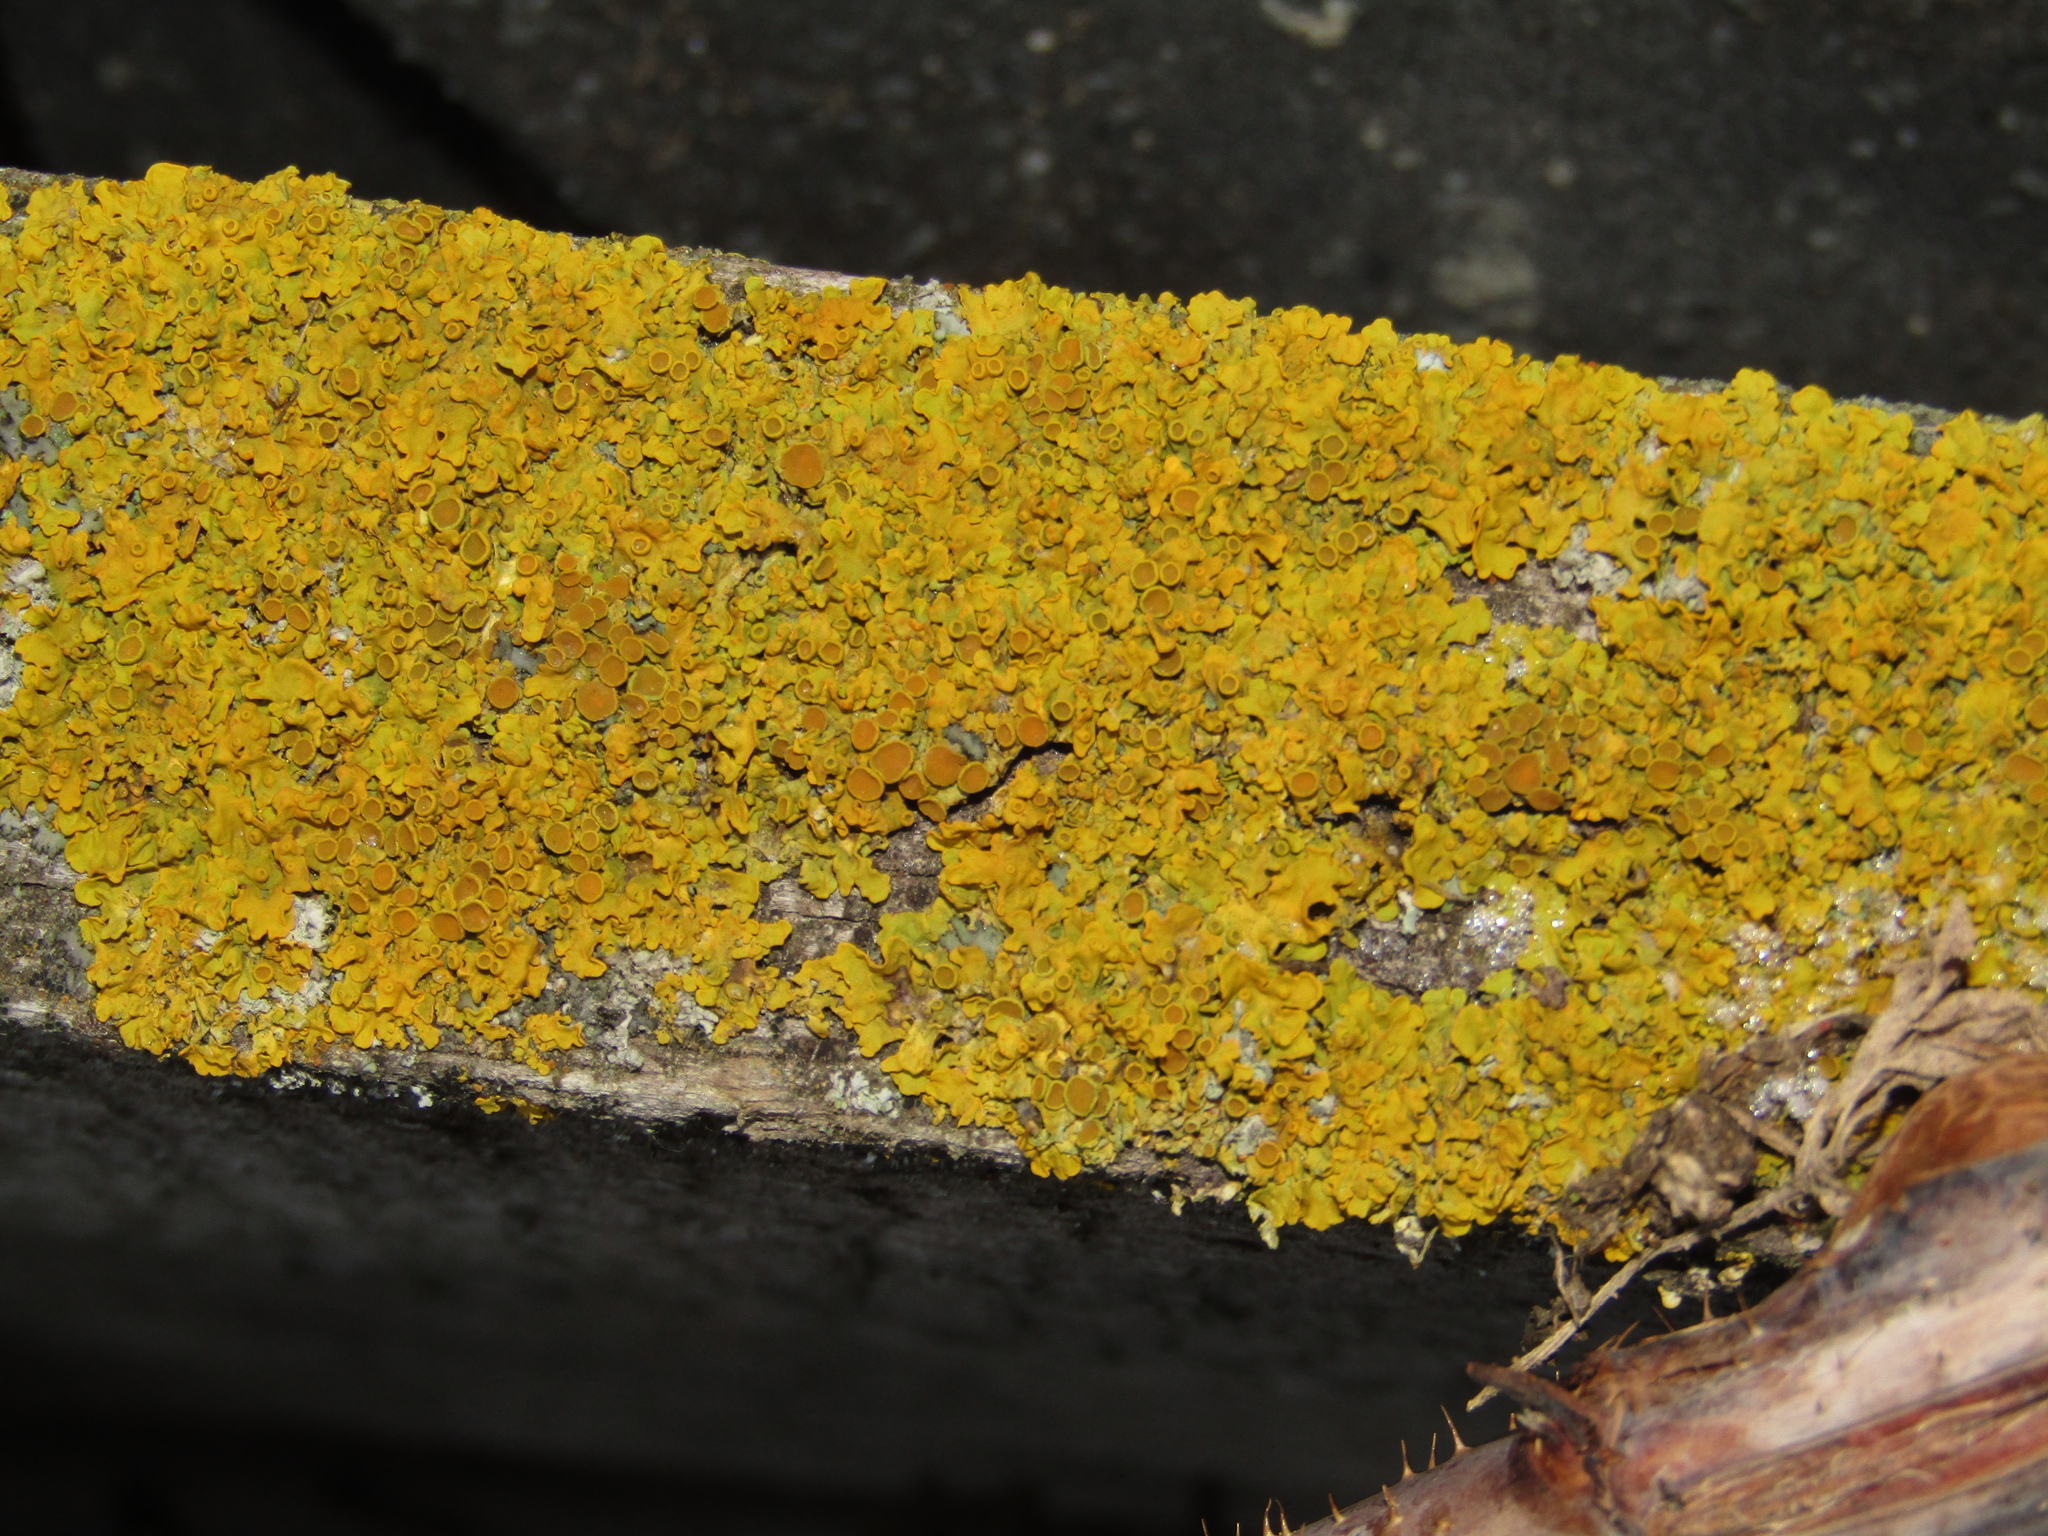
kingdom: Fungi
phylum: Ascomycota
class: Lecanoromycetes
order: Teloschistales
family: Teloschistaceae
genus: Xanthoria
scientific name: Xanthoria parietina
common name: Common orange lichen
